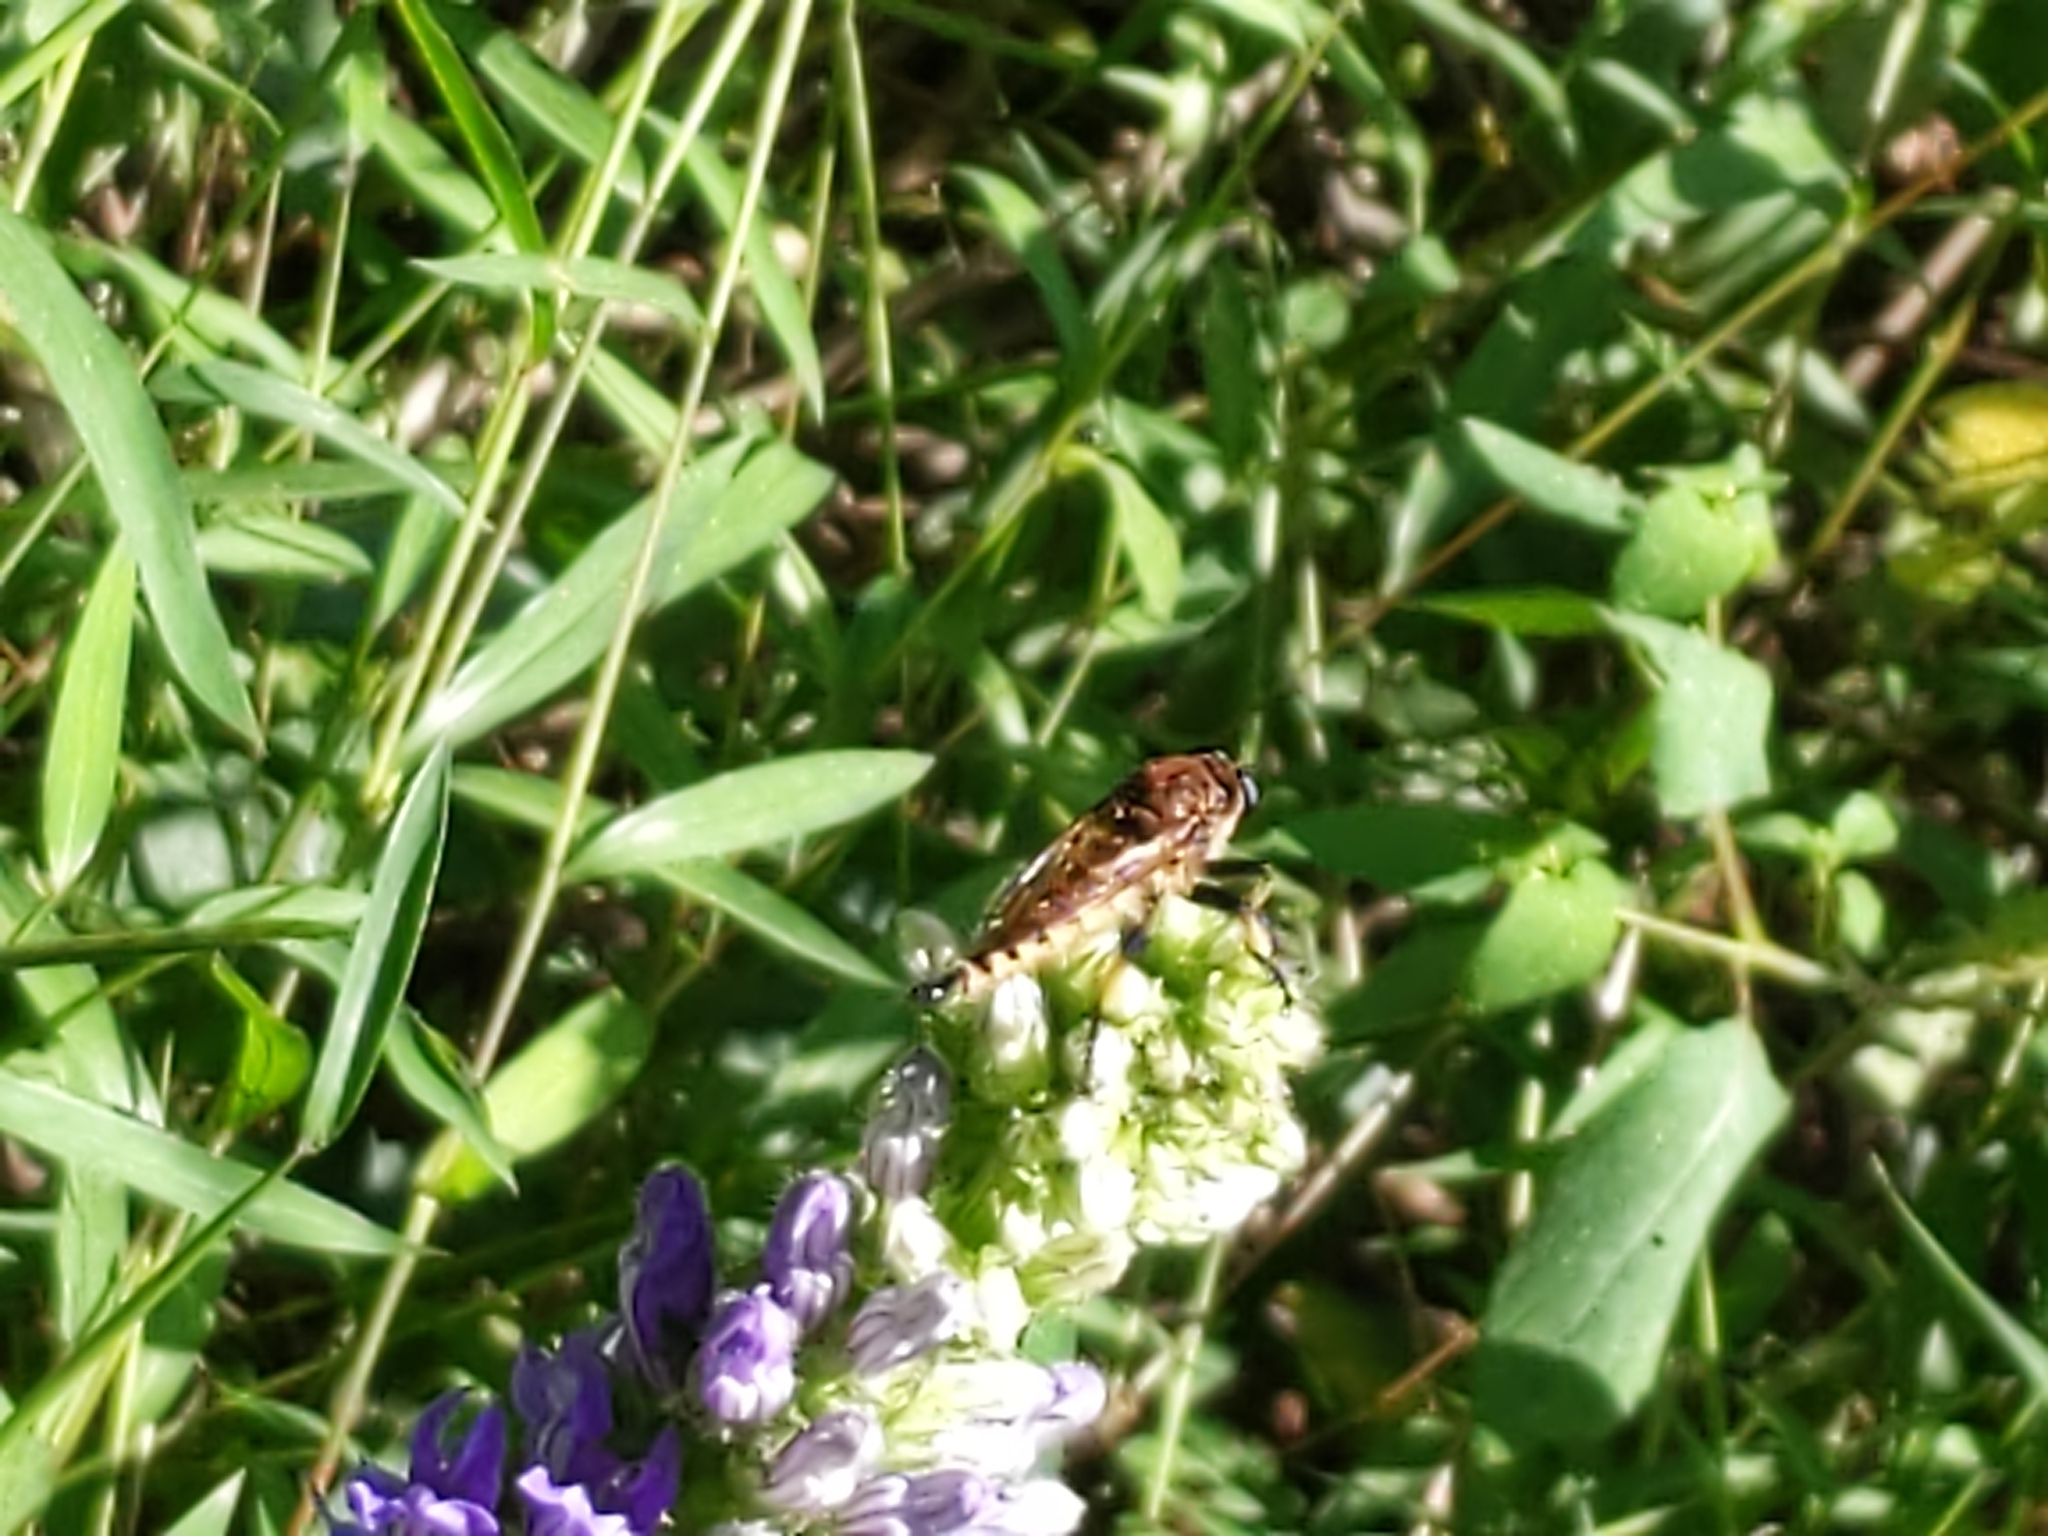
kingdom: Animalia
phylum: Arthropoda
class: Insecta
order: Diptera
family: Asilidae
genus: Promachus
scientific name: Promachus rufipes
